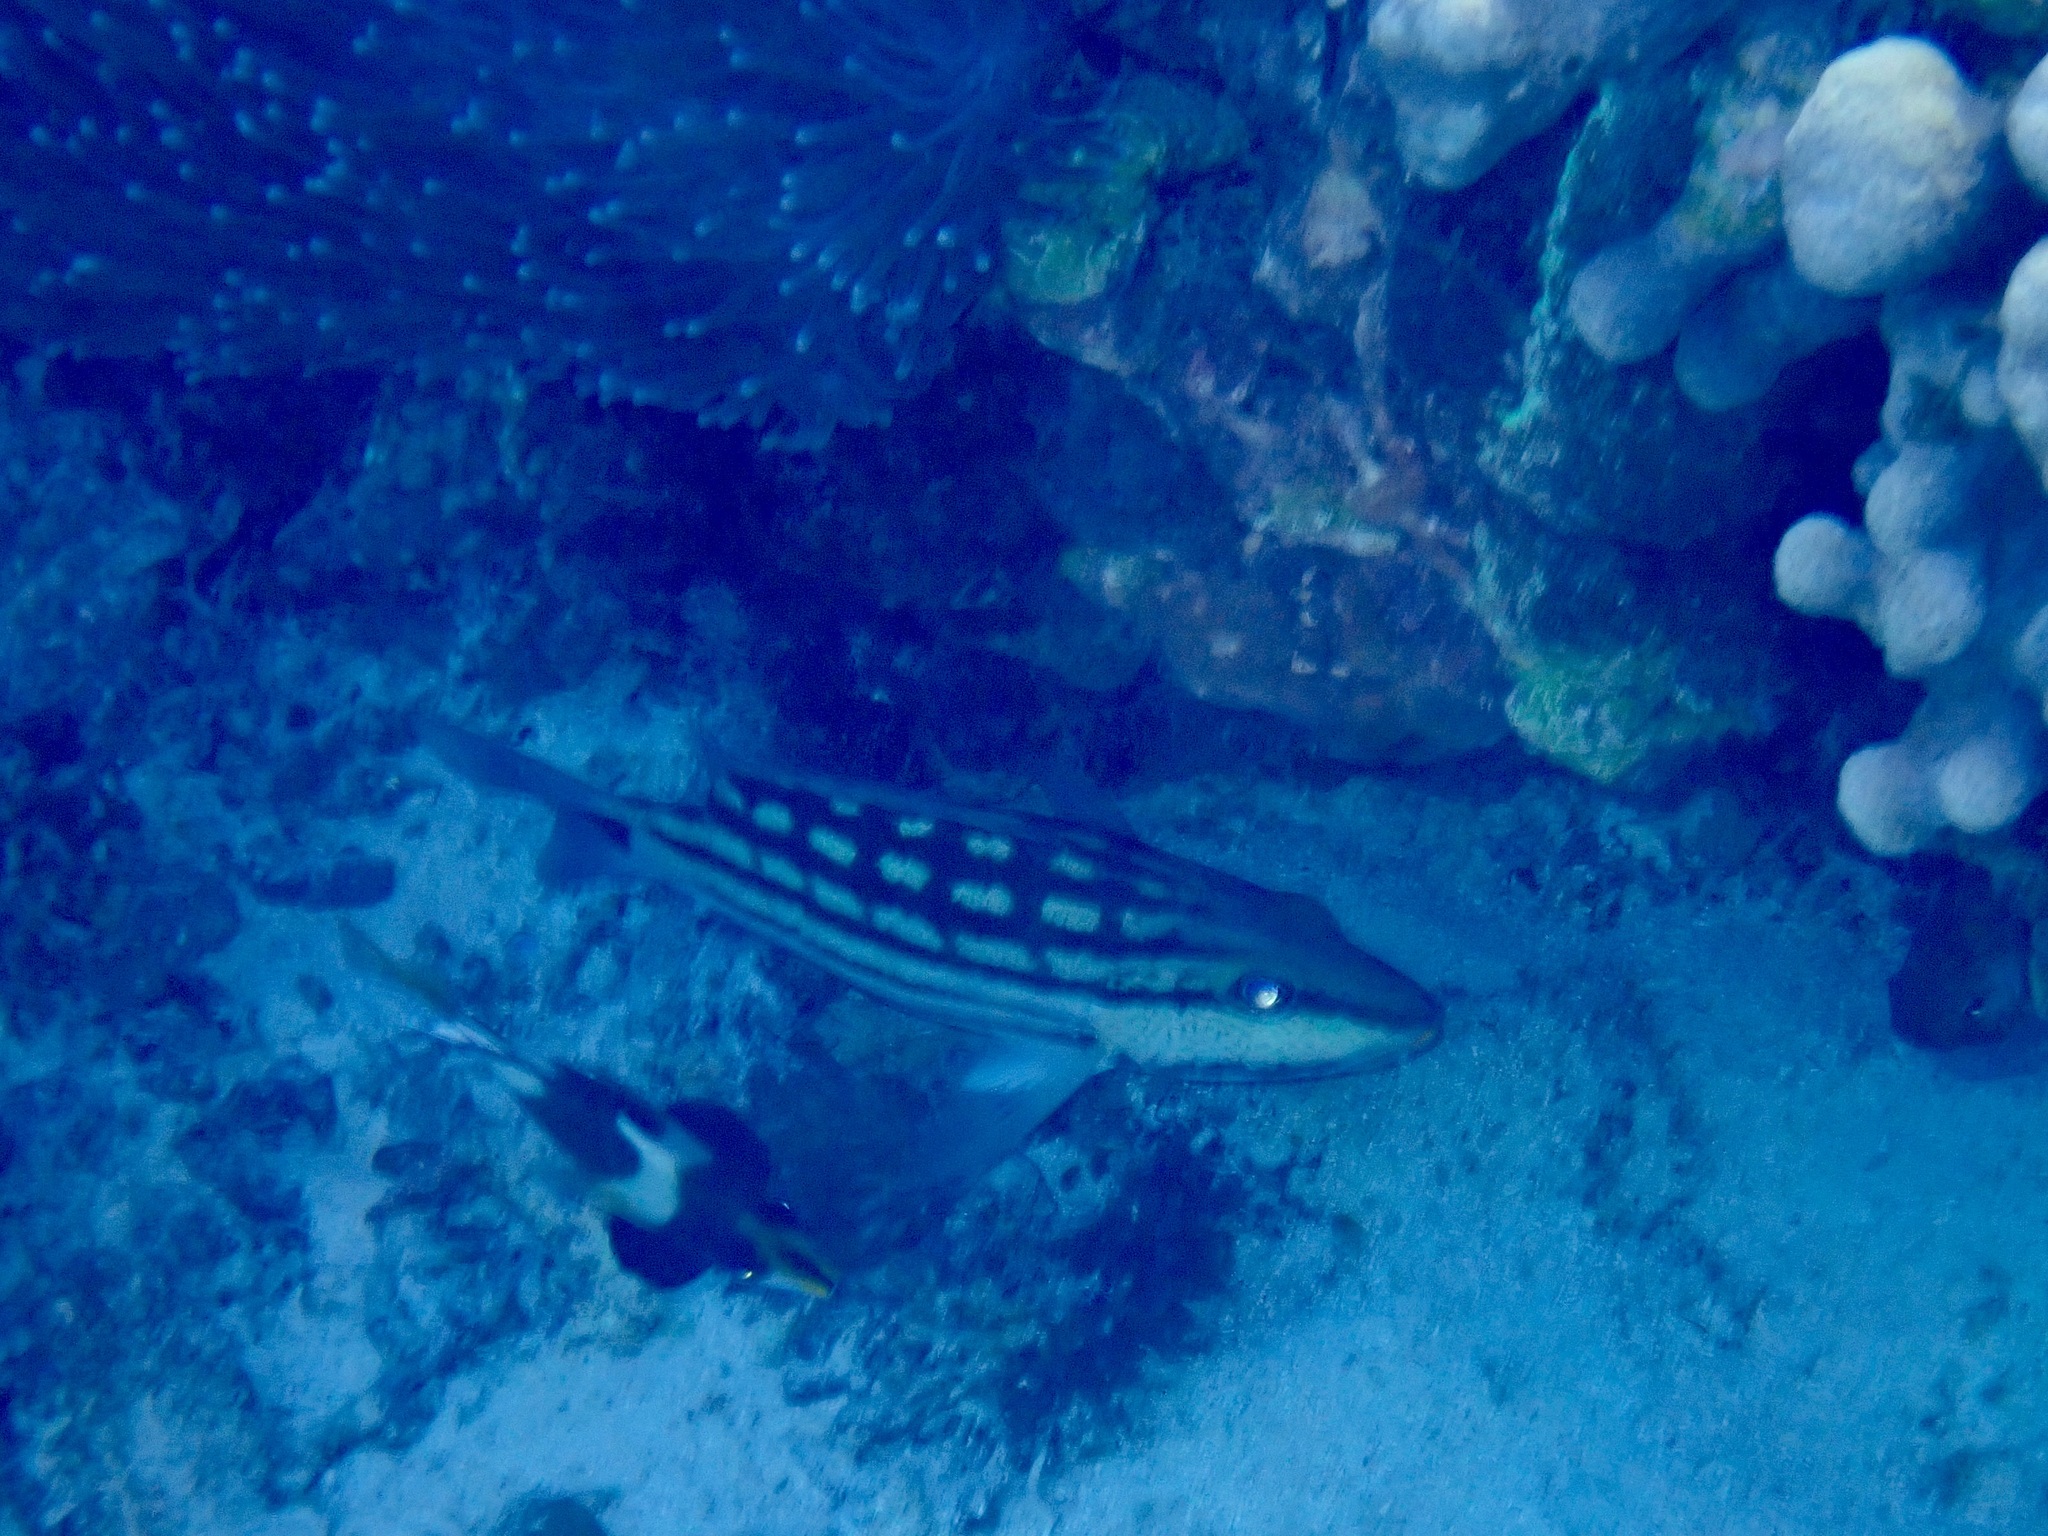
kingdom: Animalia
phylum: Chordata
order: Perciformes
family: Lutjanidae
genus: Lutjanus
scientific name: Lutjanus decussatus
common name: Checkered snapper
